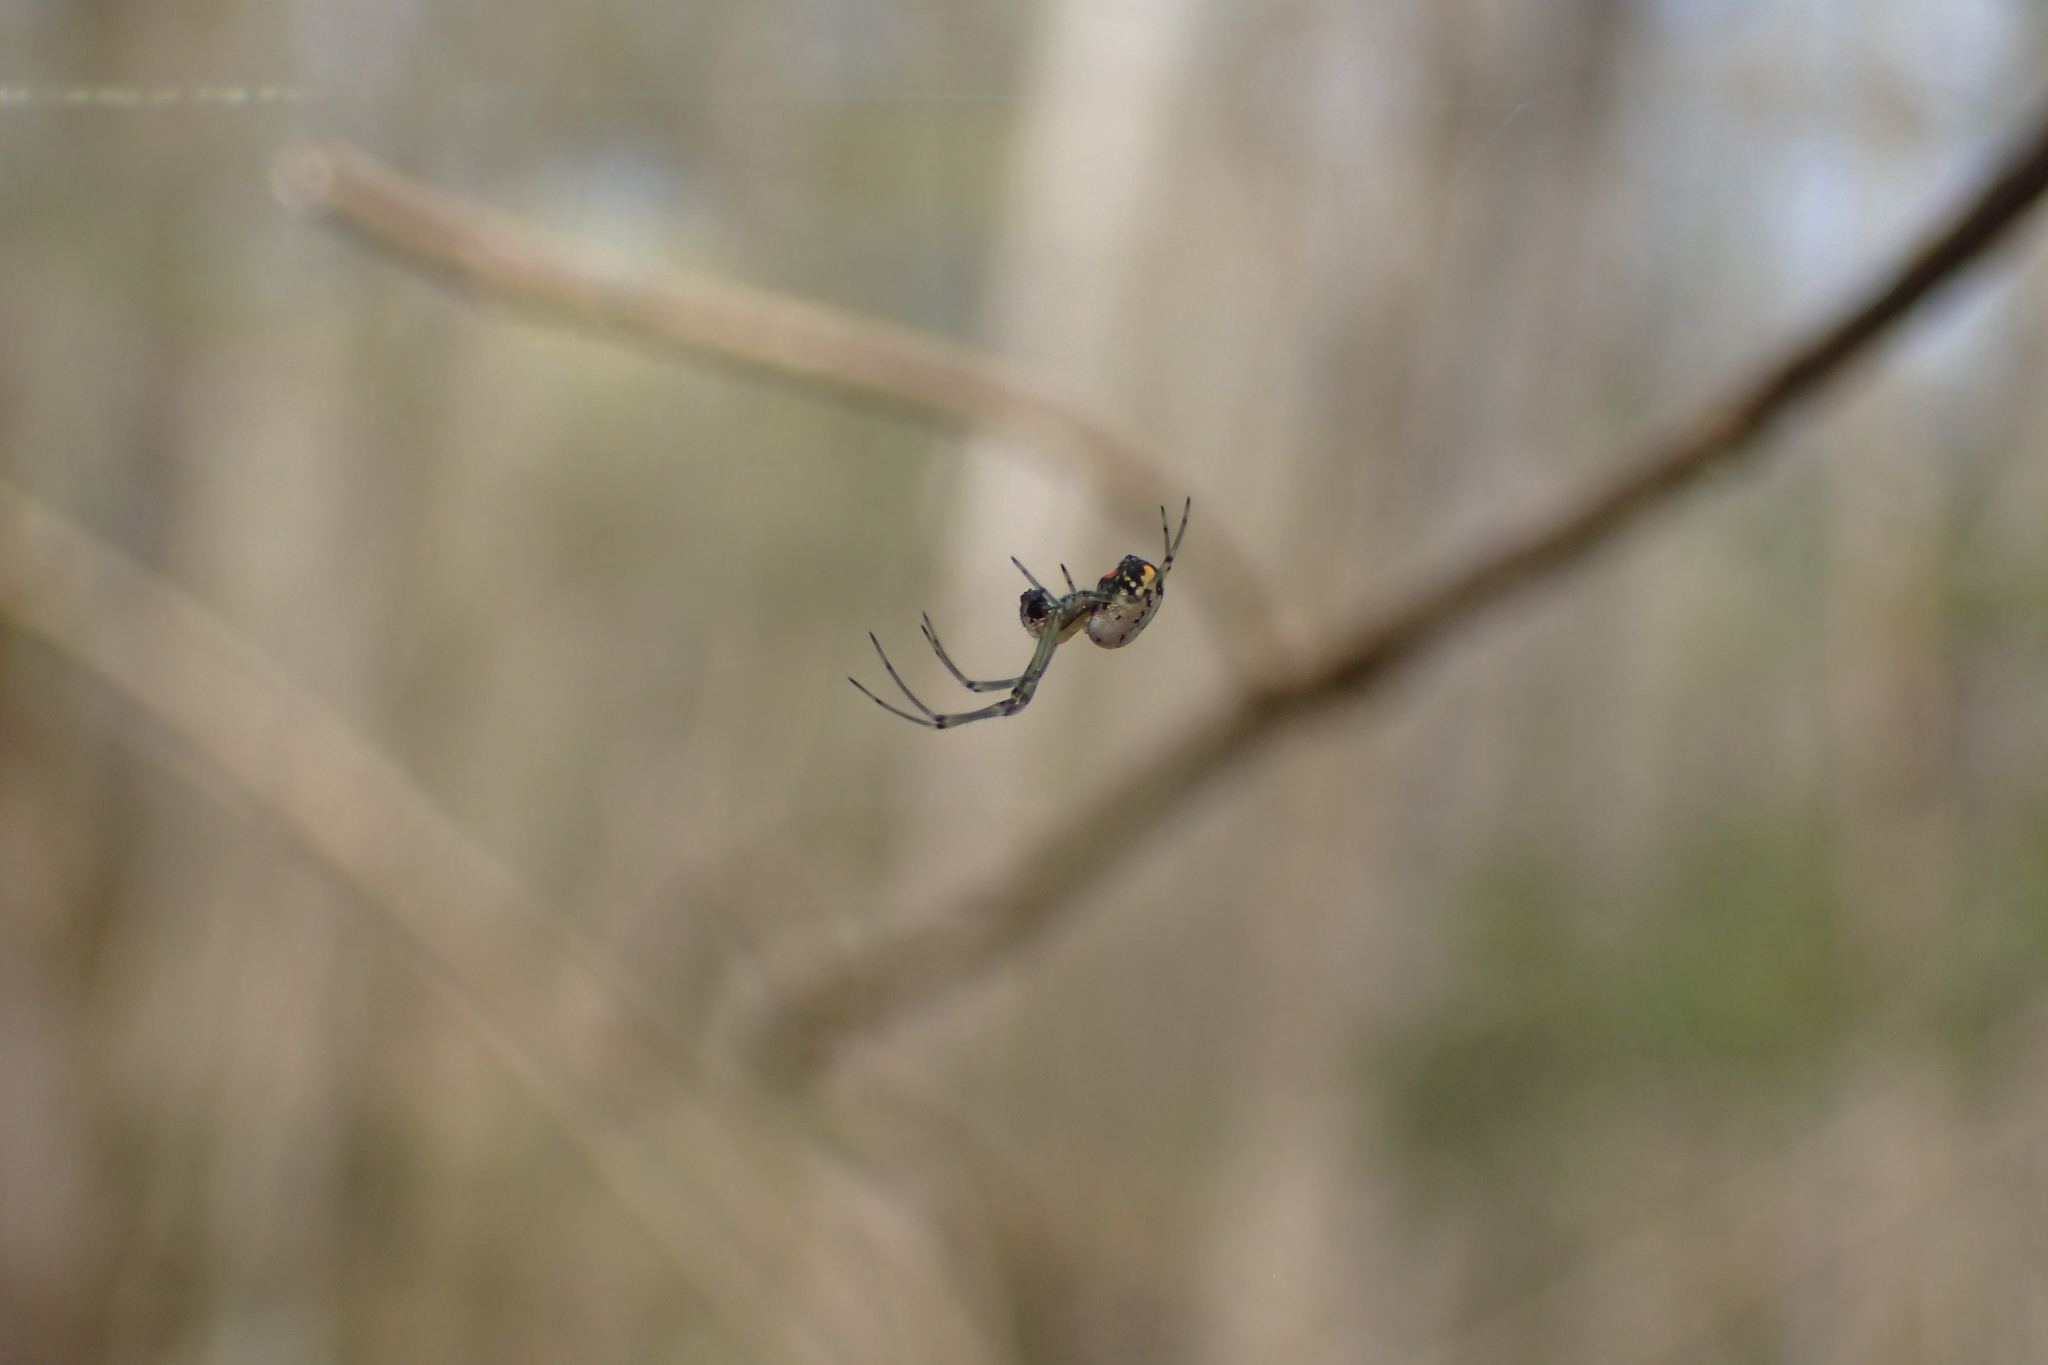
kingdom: Animalia
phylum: Arthropoda
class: Arachnida
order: Araneae
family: Tetragnathidae
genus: Leucauge
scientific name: Leucauge argyrobapta
